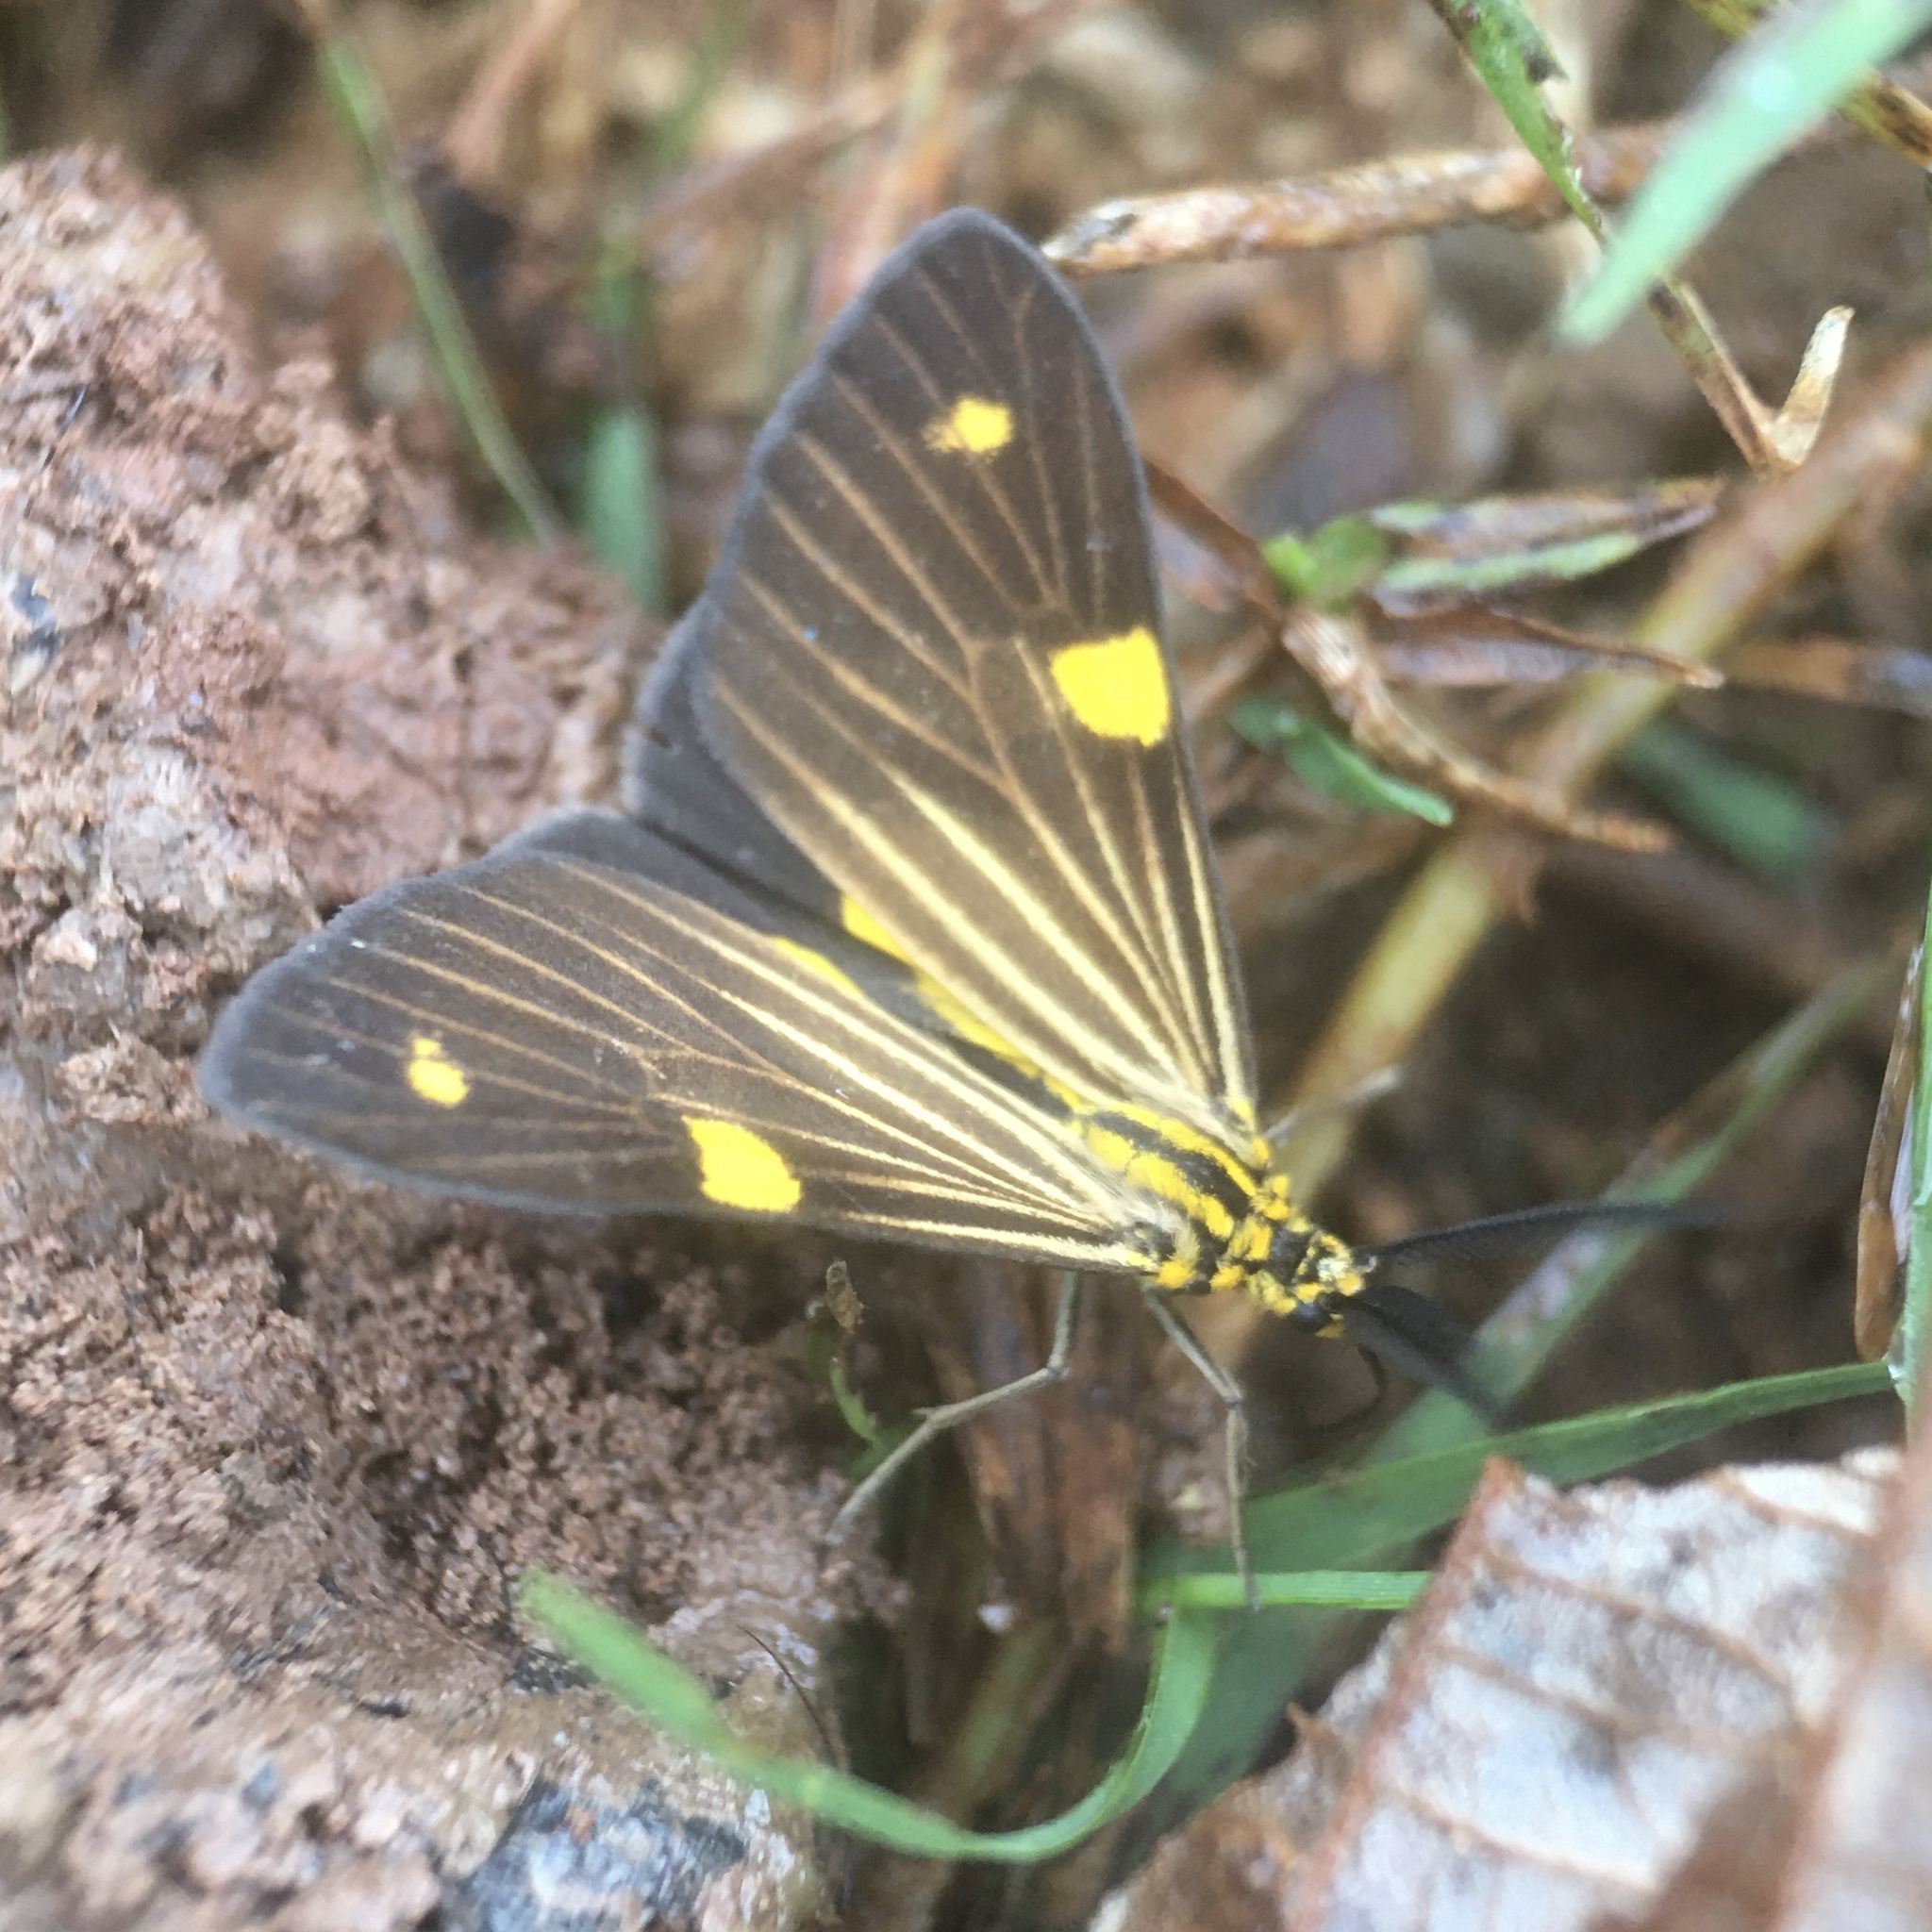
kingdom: Animalia
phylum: Arthropoda
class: Insecta
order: Lepidoptera
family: Notodontidae
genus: Phaeochlaena
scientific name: Phaeochlaena
